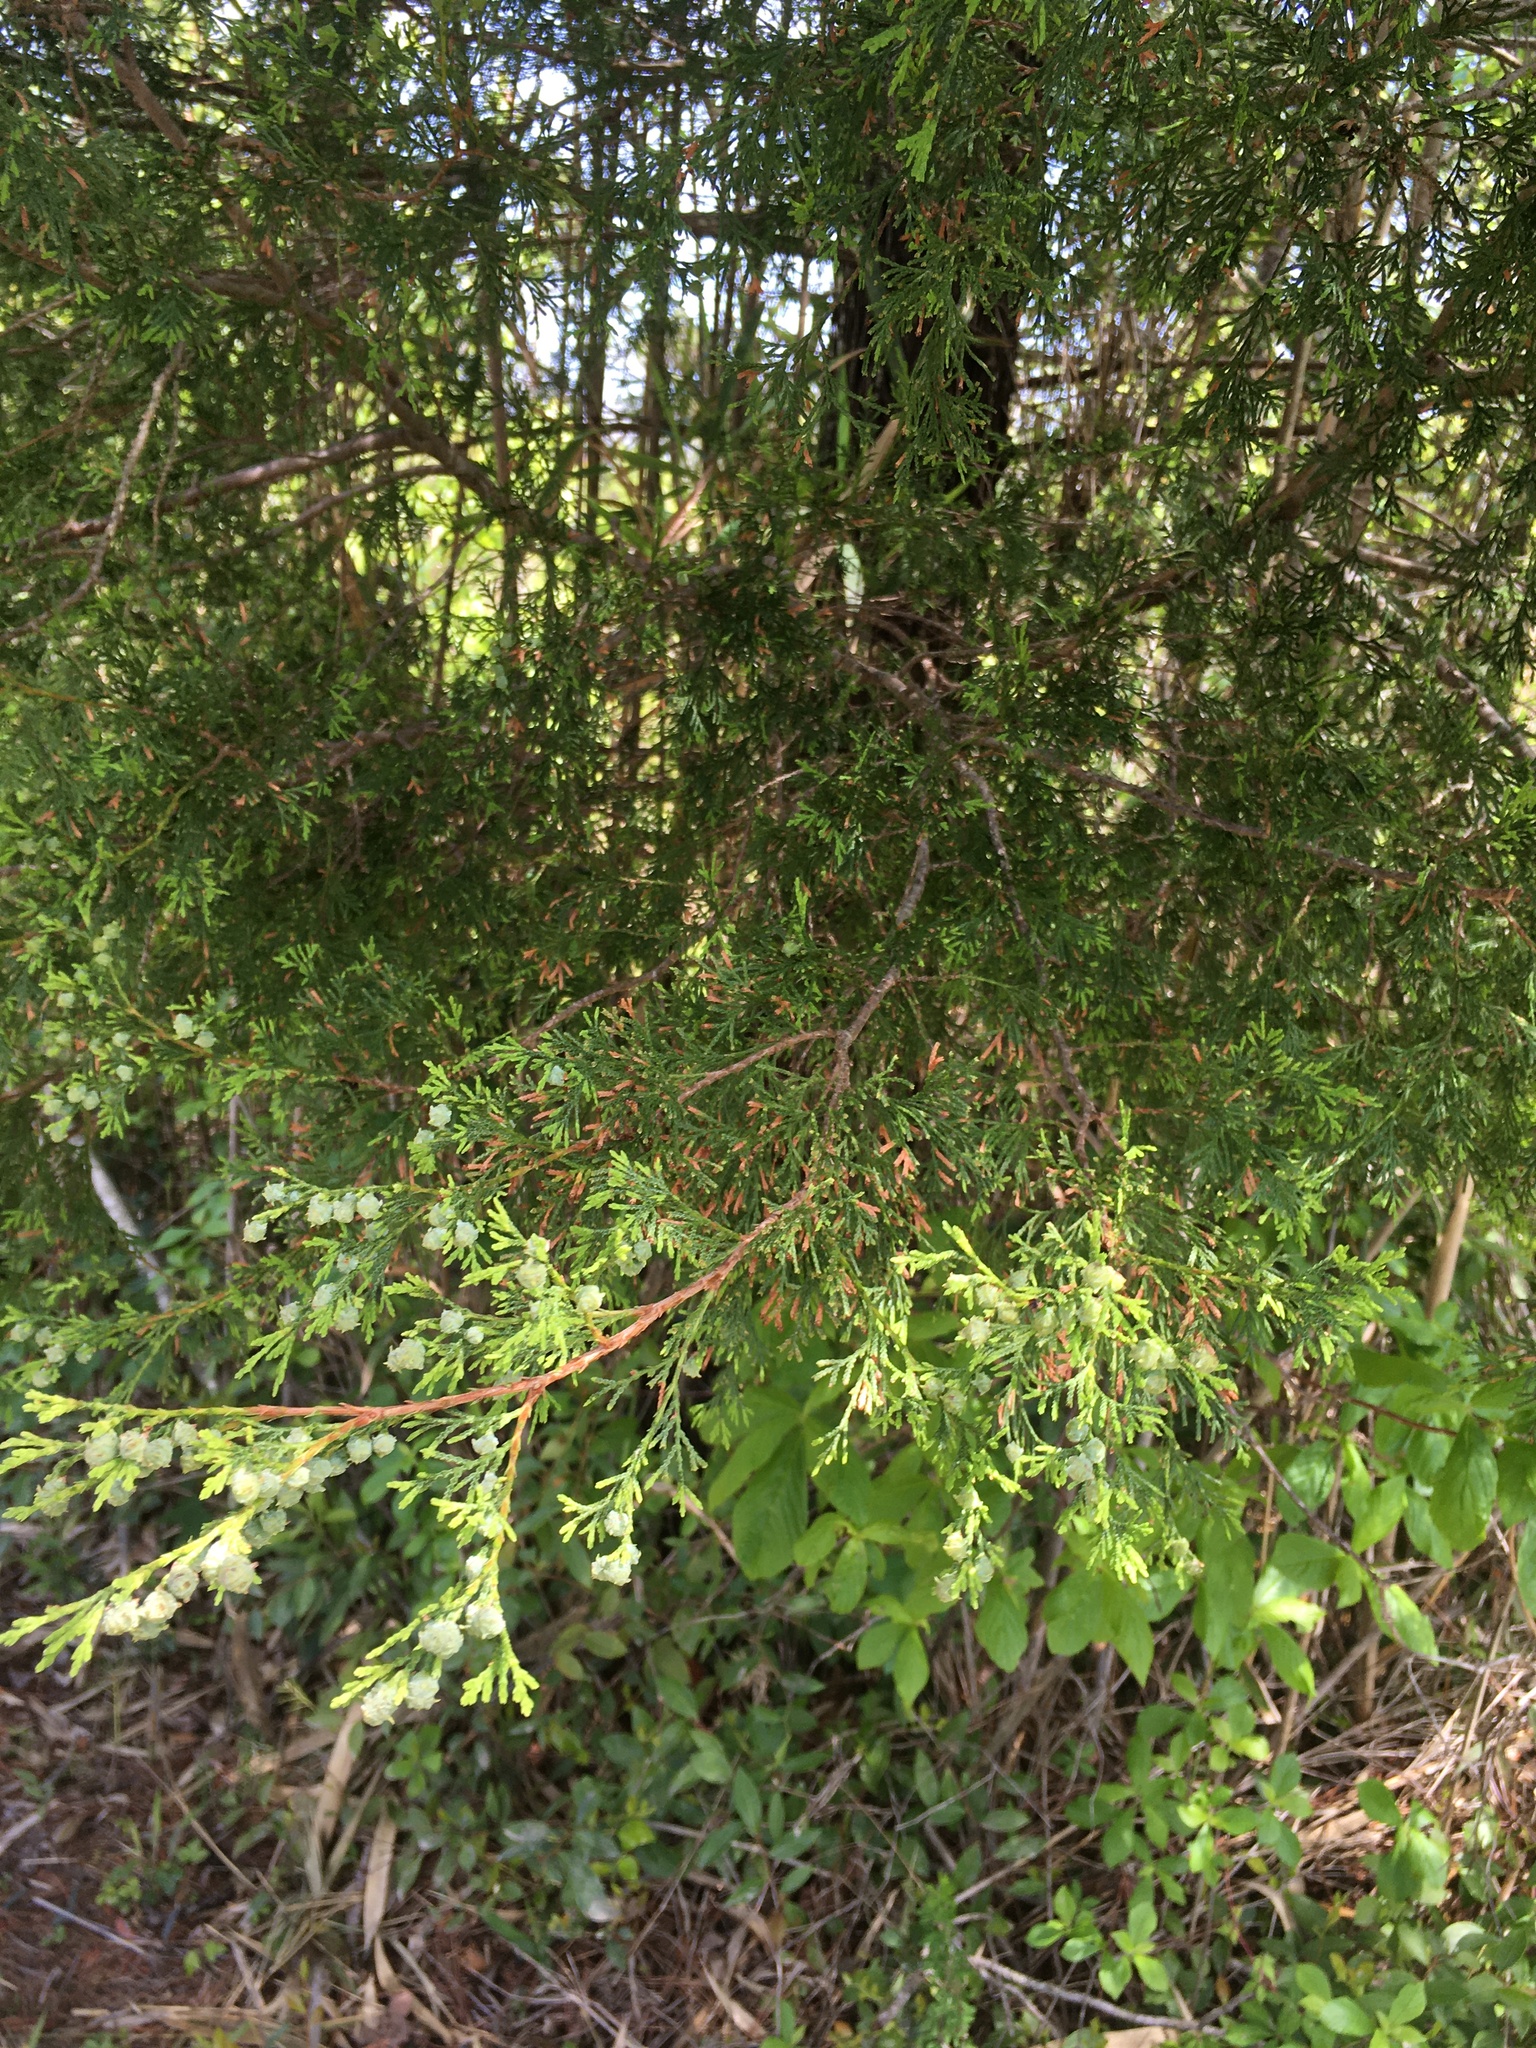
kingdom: Plantae
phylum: Tracheophyta
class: Pinopsida
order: Pinales
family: Cupressaceae
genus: Chamaecyparis
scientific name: Chamaecyparis thyoides
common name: Atlantic white cedar
